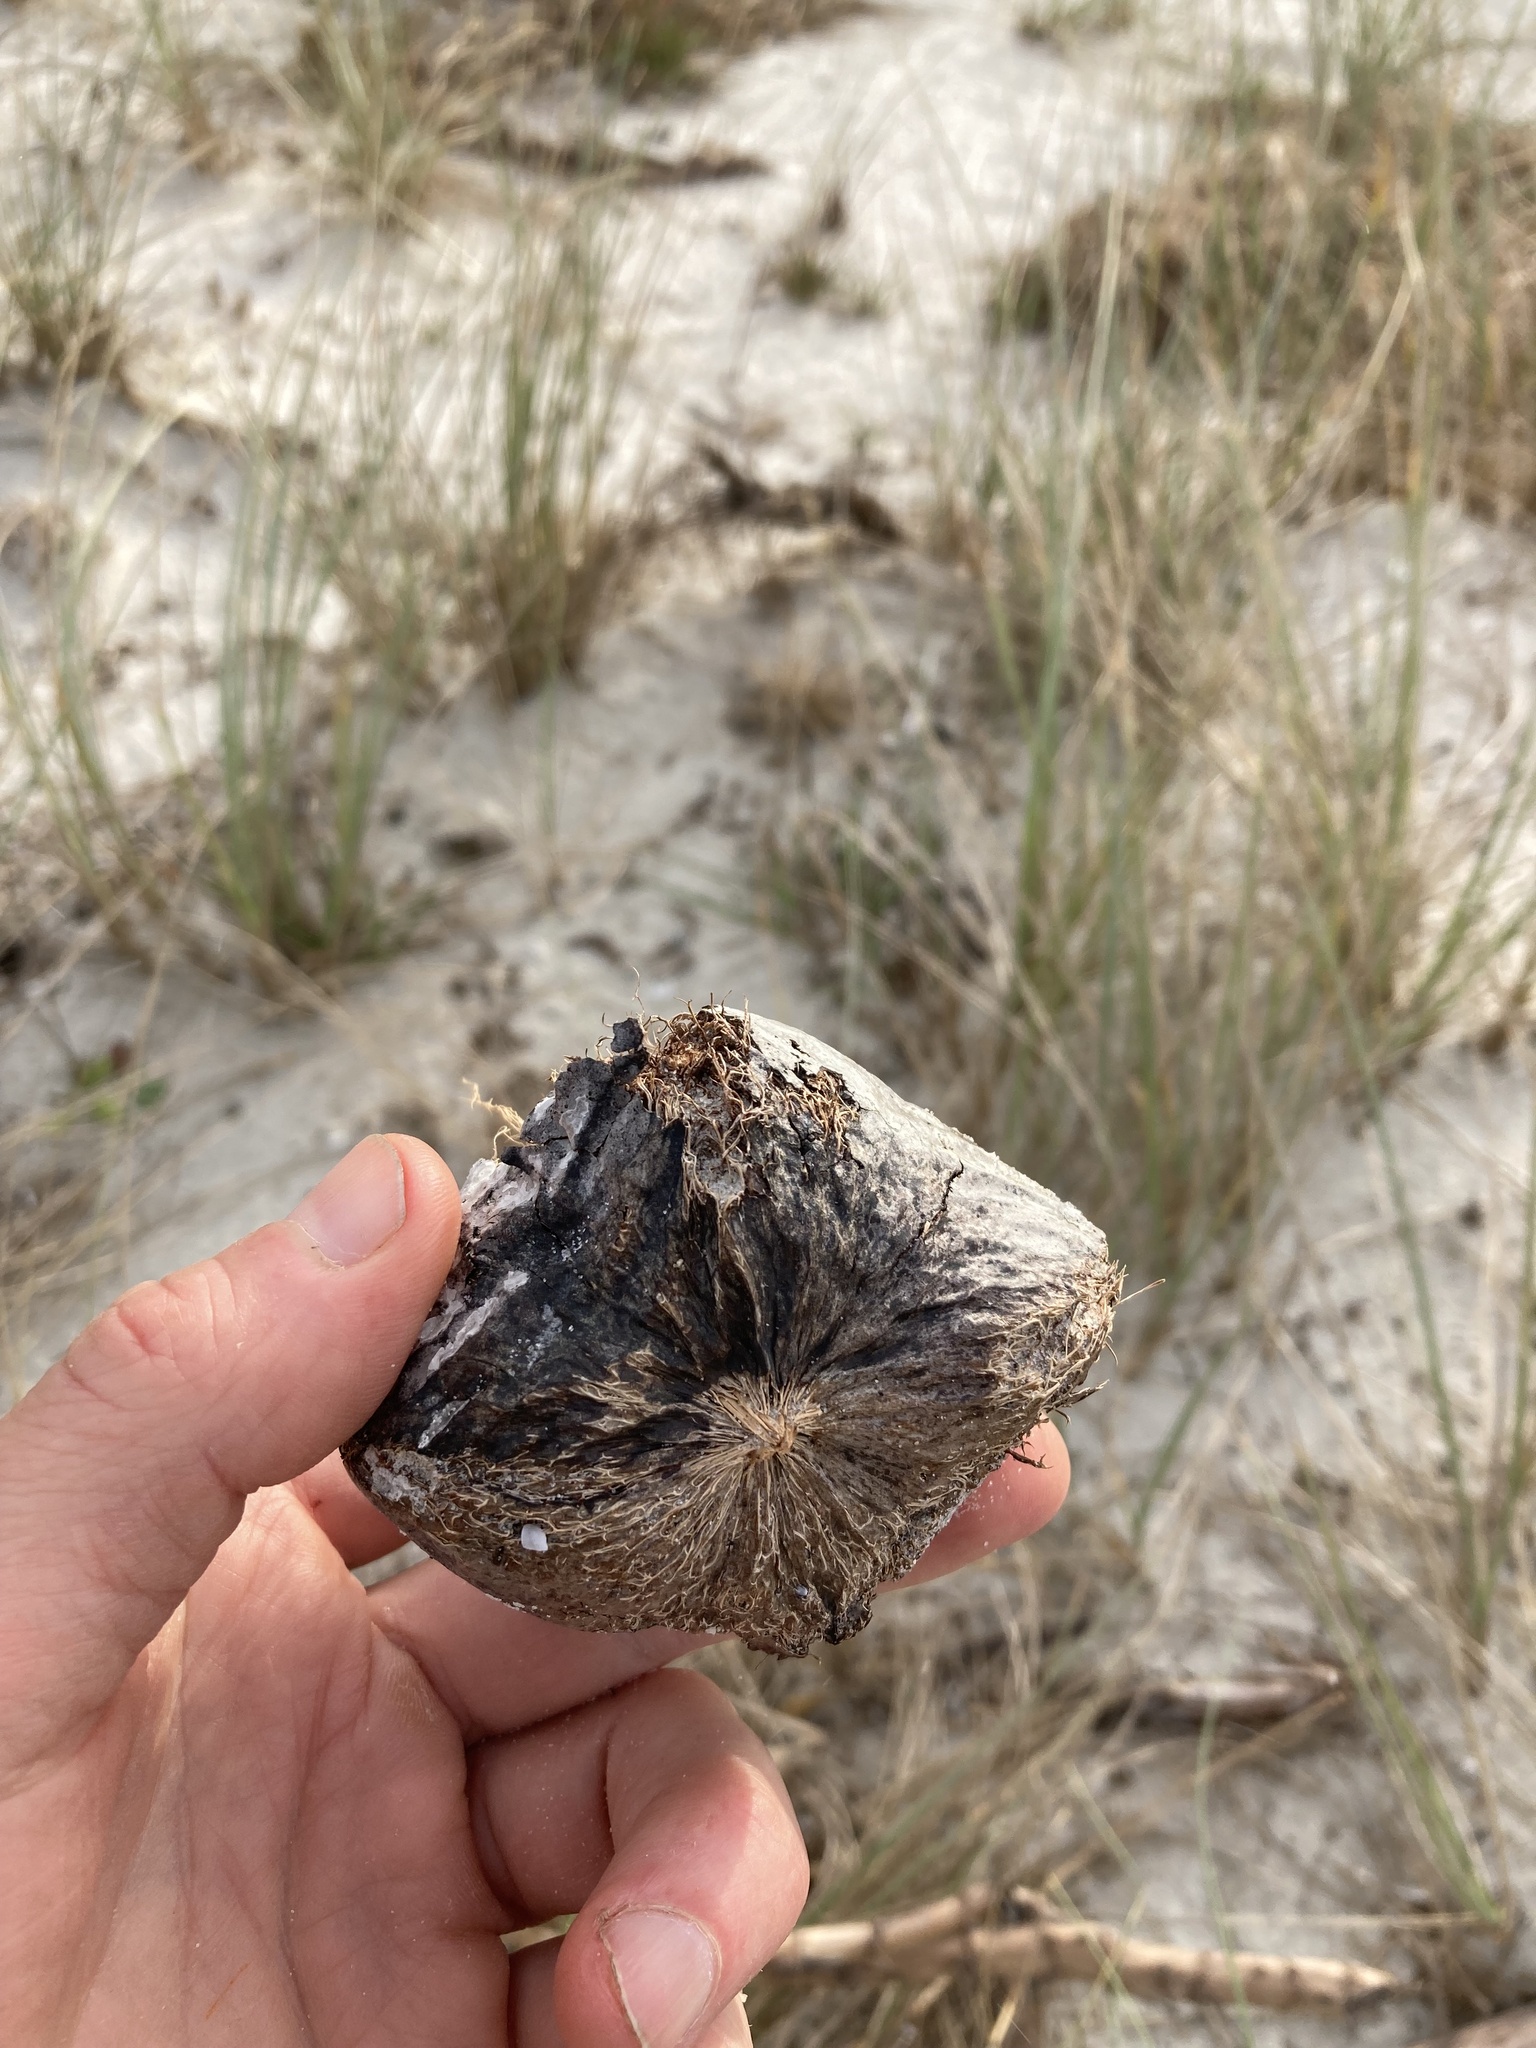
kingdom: Plantae
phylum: Tracheophyta
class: Magnoliopsida
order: Ericales
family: Lecythidaceae
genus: Barringtonia
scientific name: Barringtonia asiatica
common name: Mango-pine
